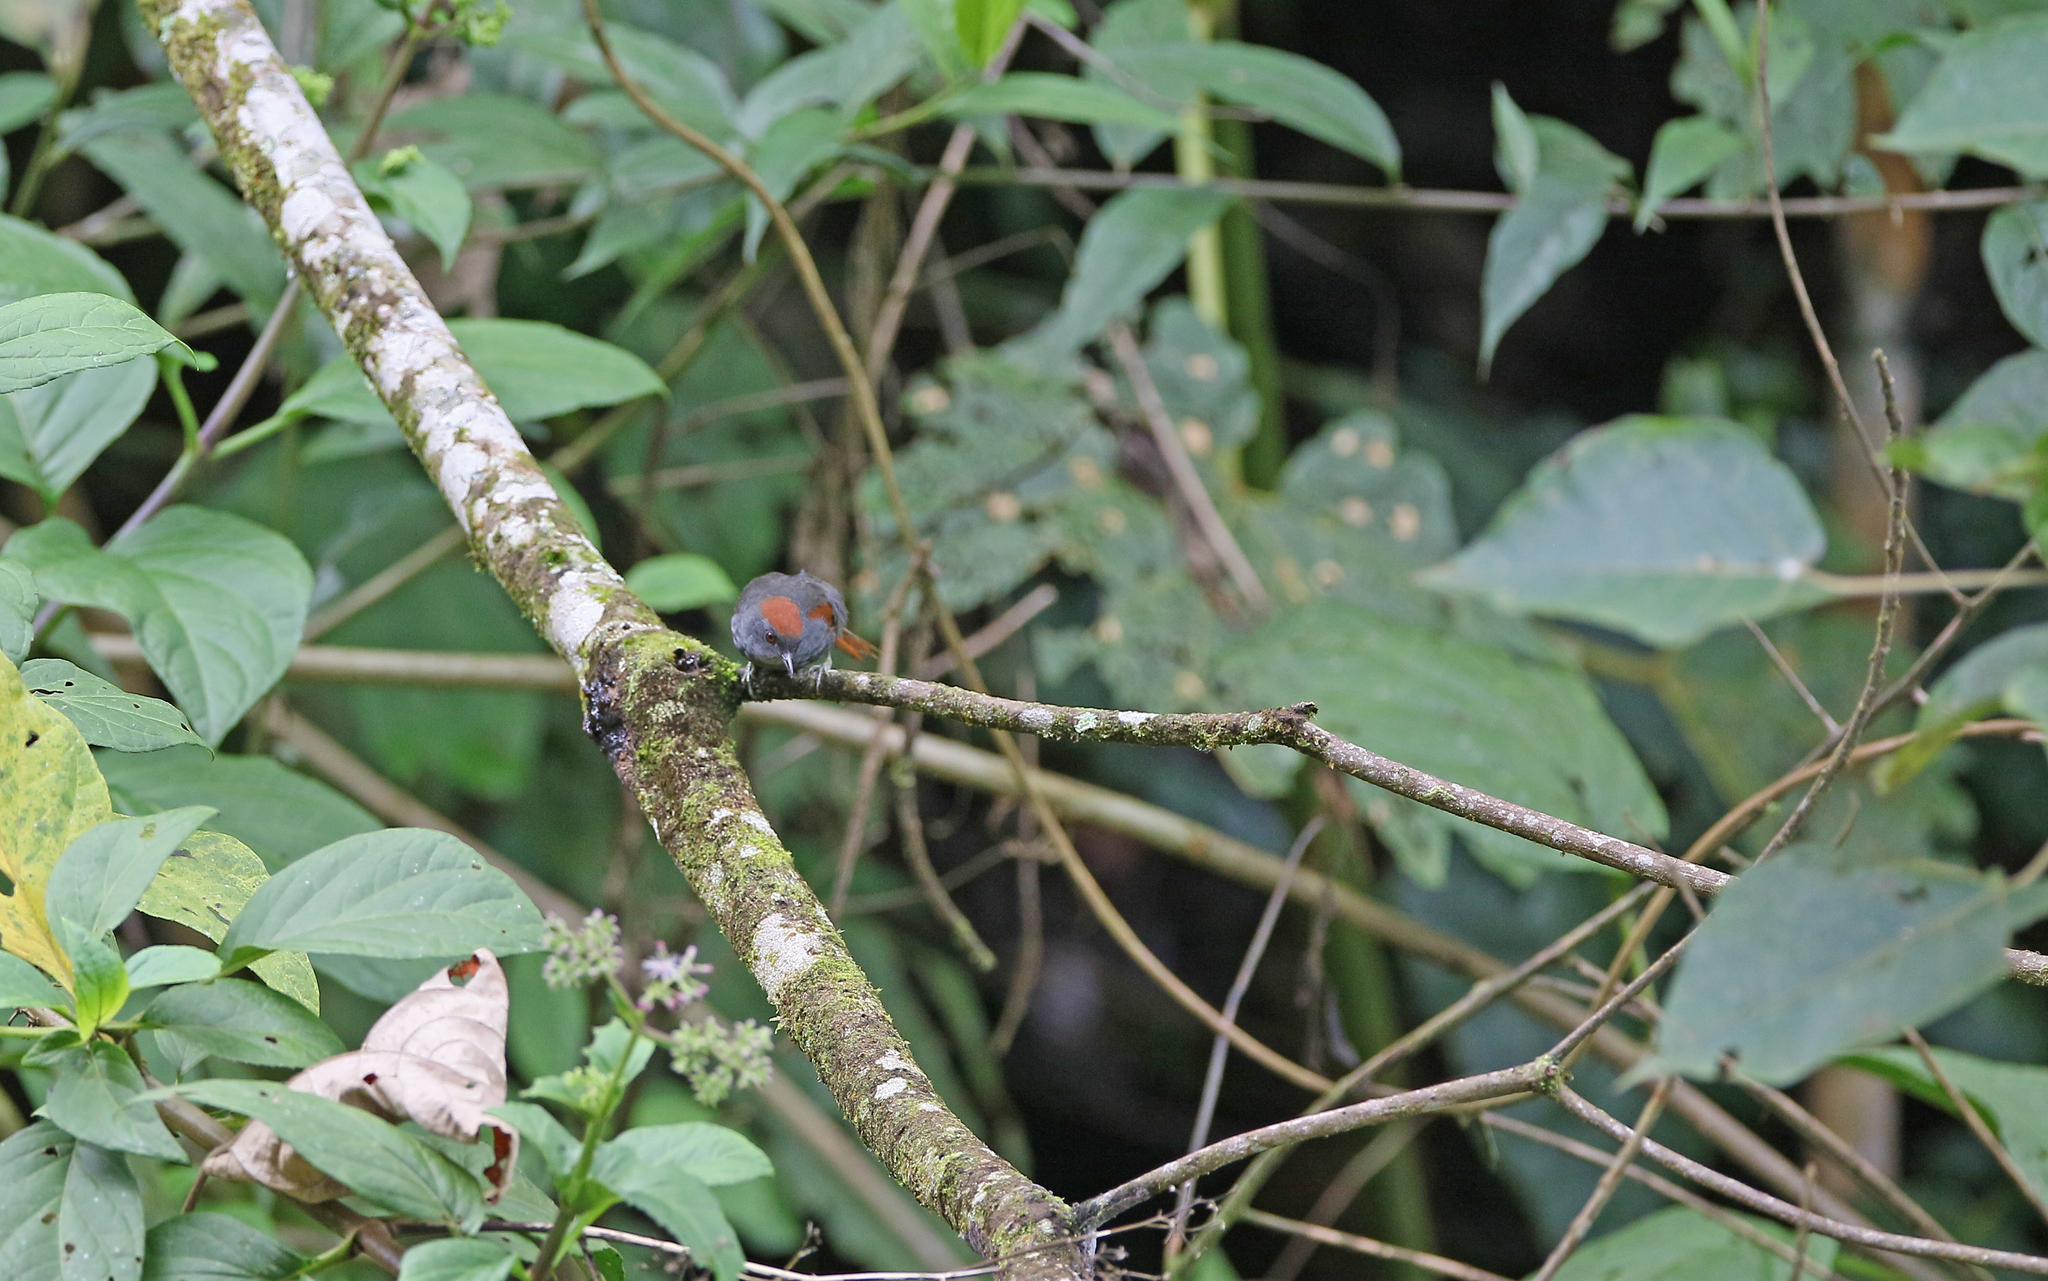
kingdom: Animalia
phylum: Chordata
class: Aves
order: Passeriformes
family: Furnariidae
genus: Synallaxis
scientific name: Synallaxis albigularis
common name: Dark-breasted spinetail
